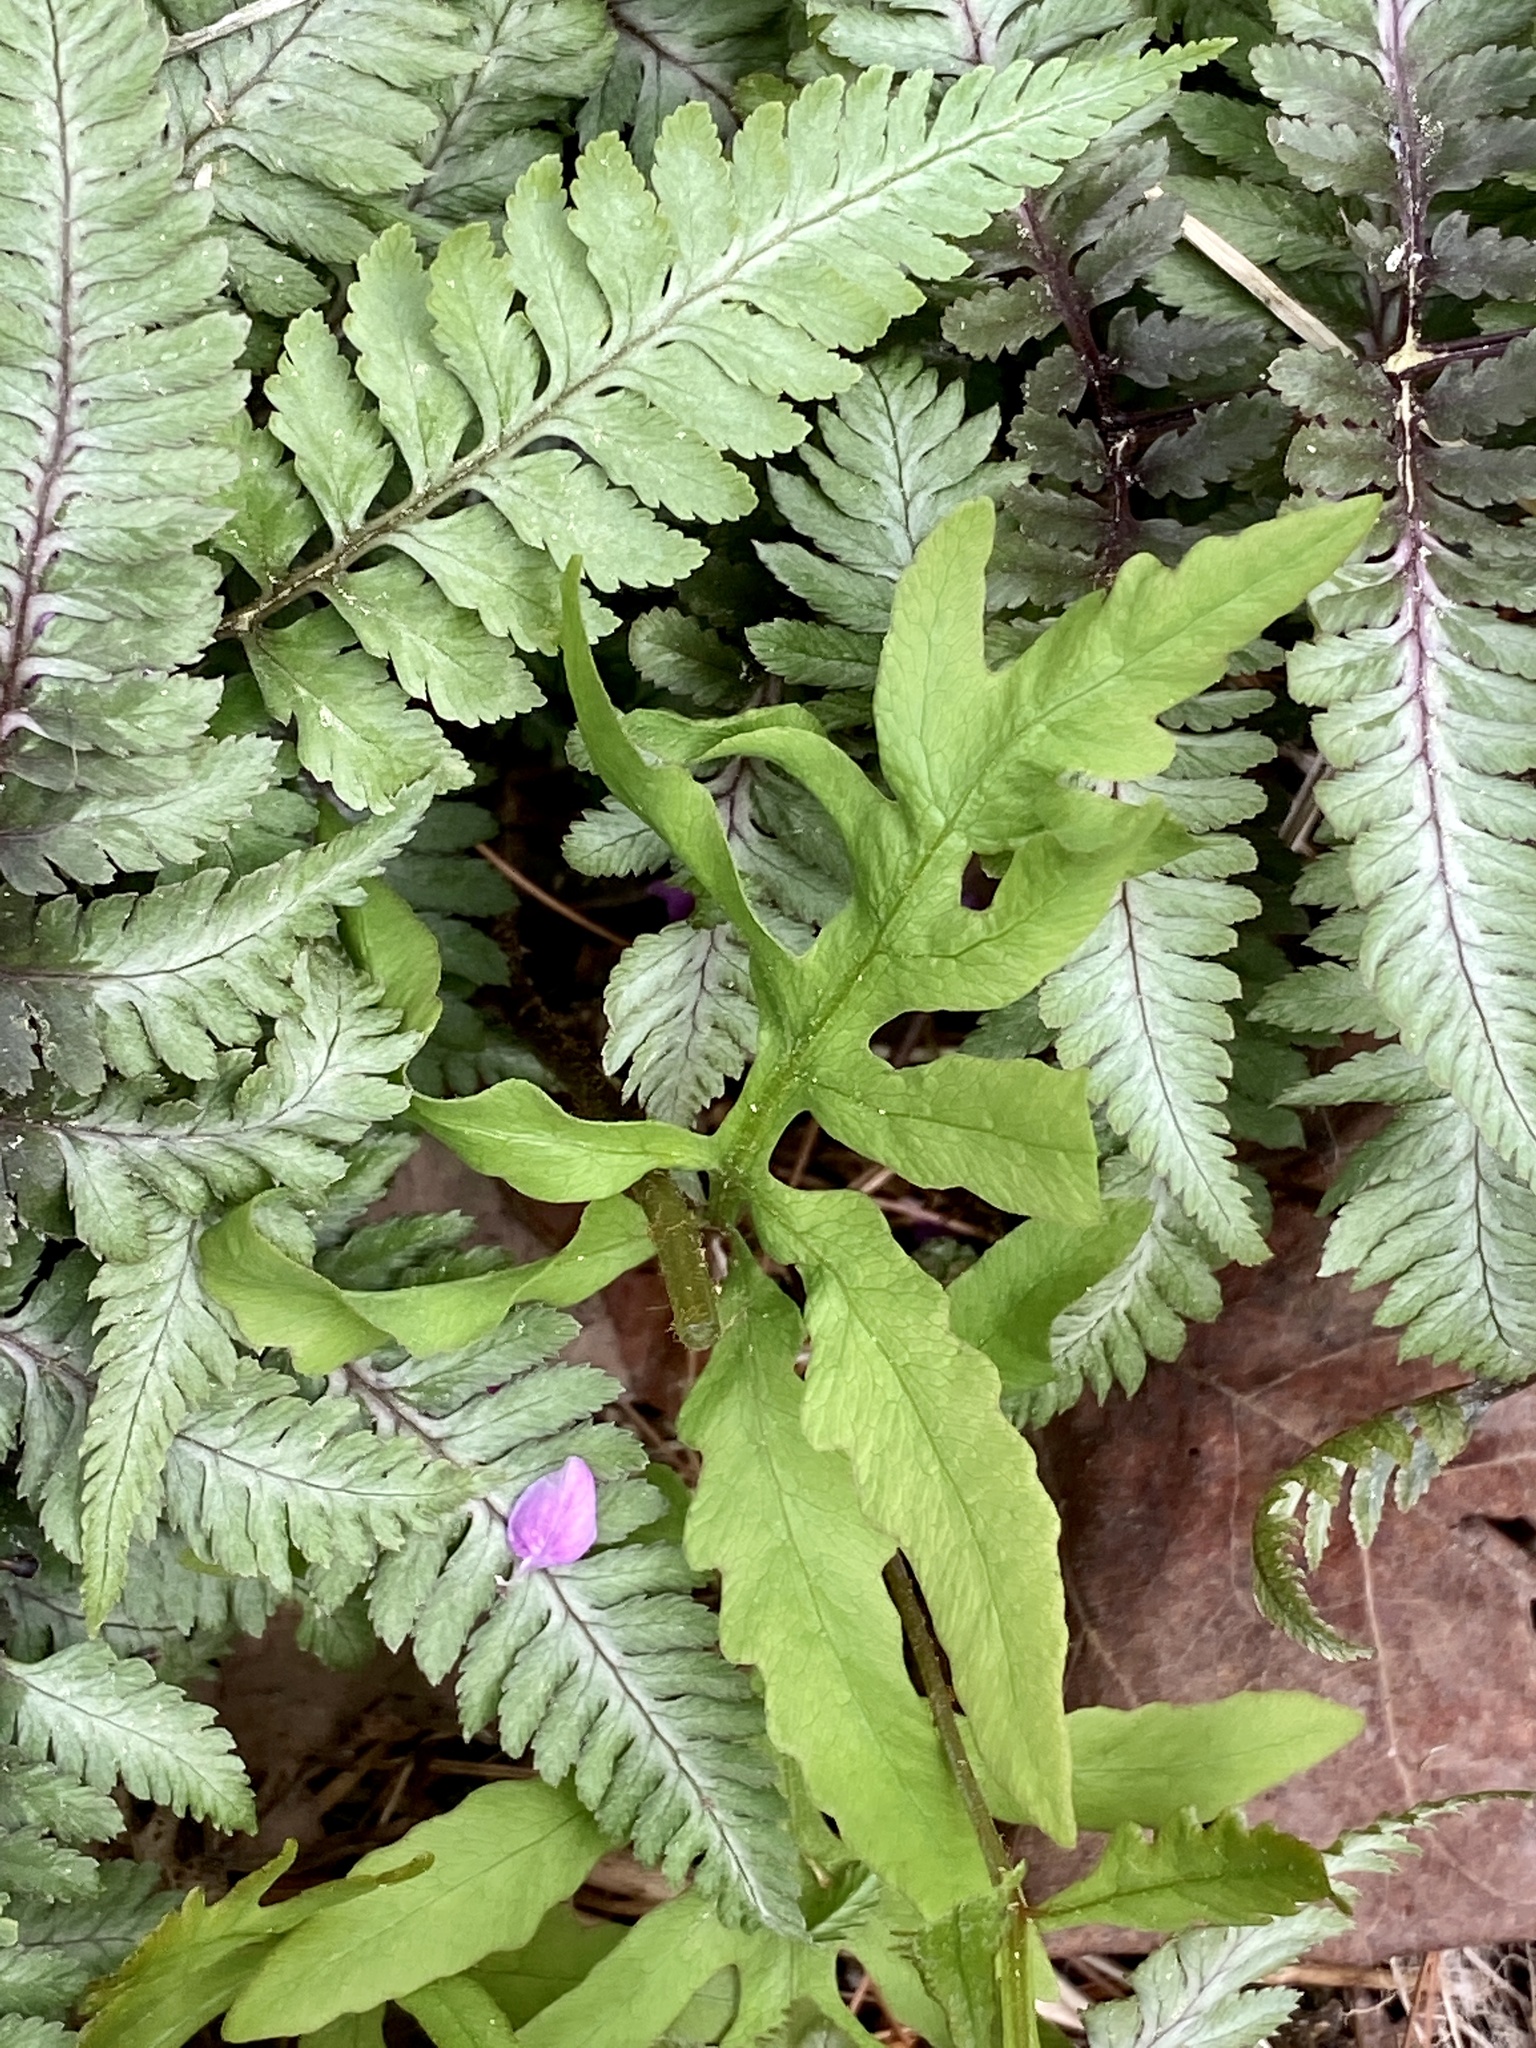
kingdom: Plantae
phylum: Tracheophyta
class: Polypodiopsida
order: Polypodiales
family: Onocleaceae
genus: Onoclea
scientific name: Onoclea sensibilis
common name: Sensitive fern
